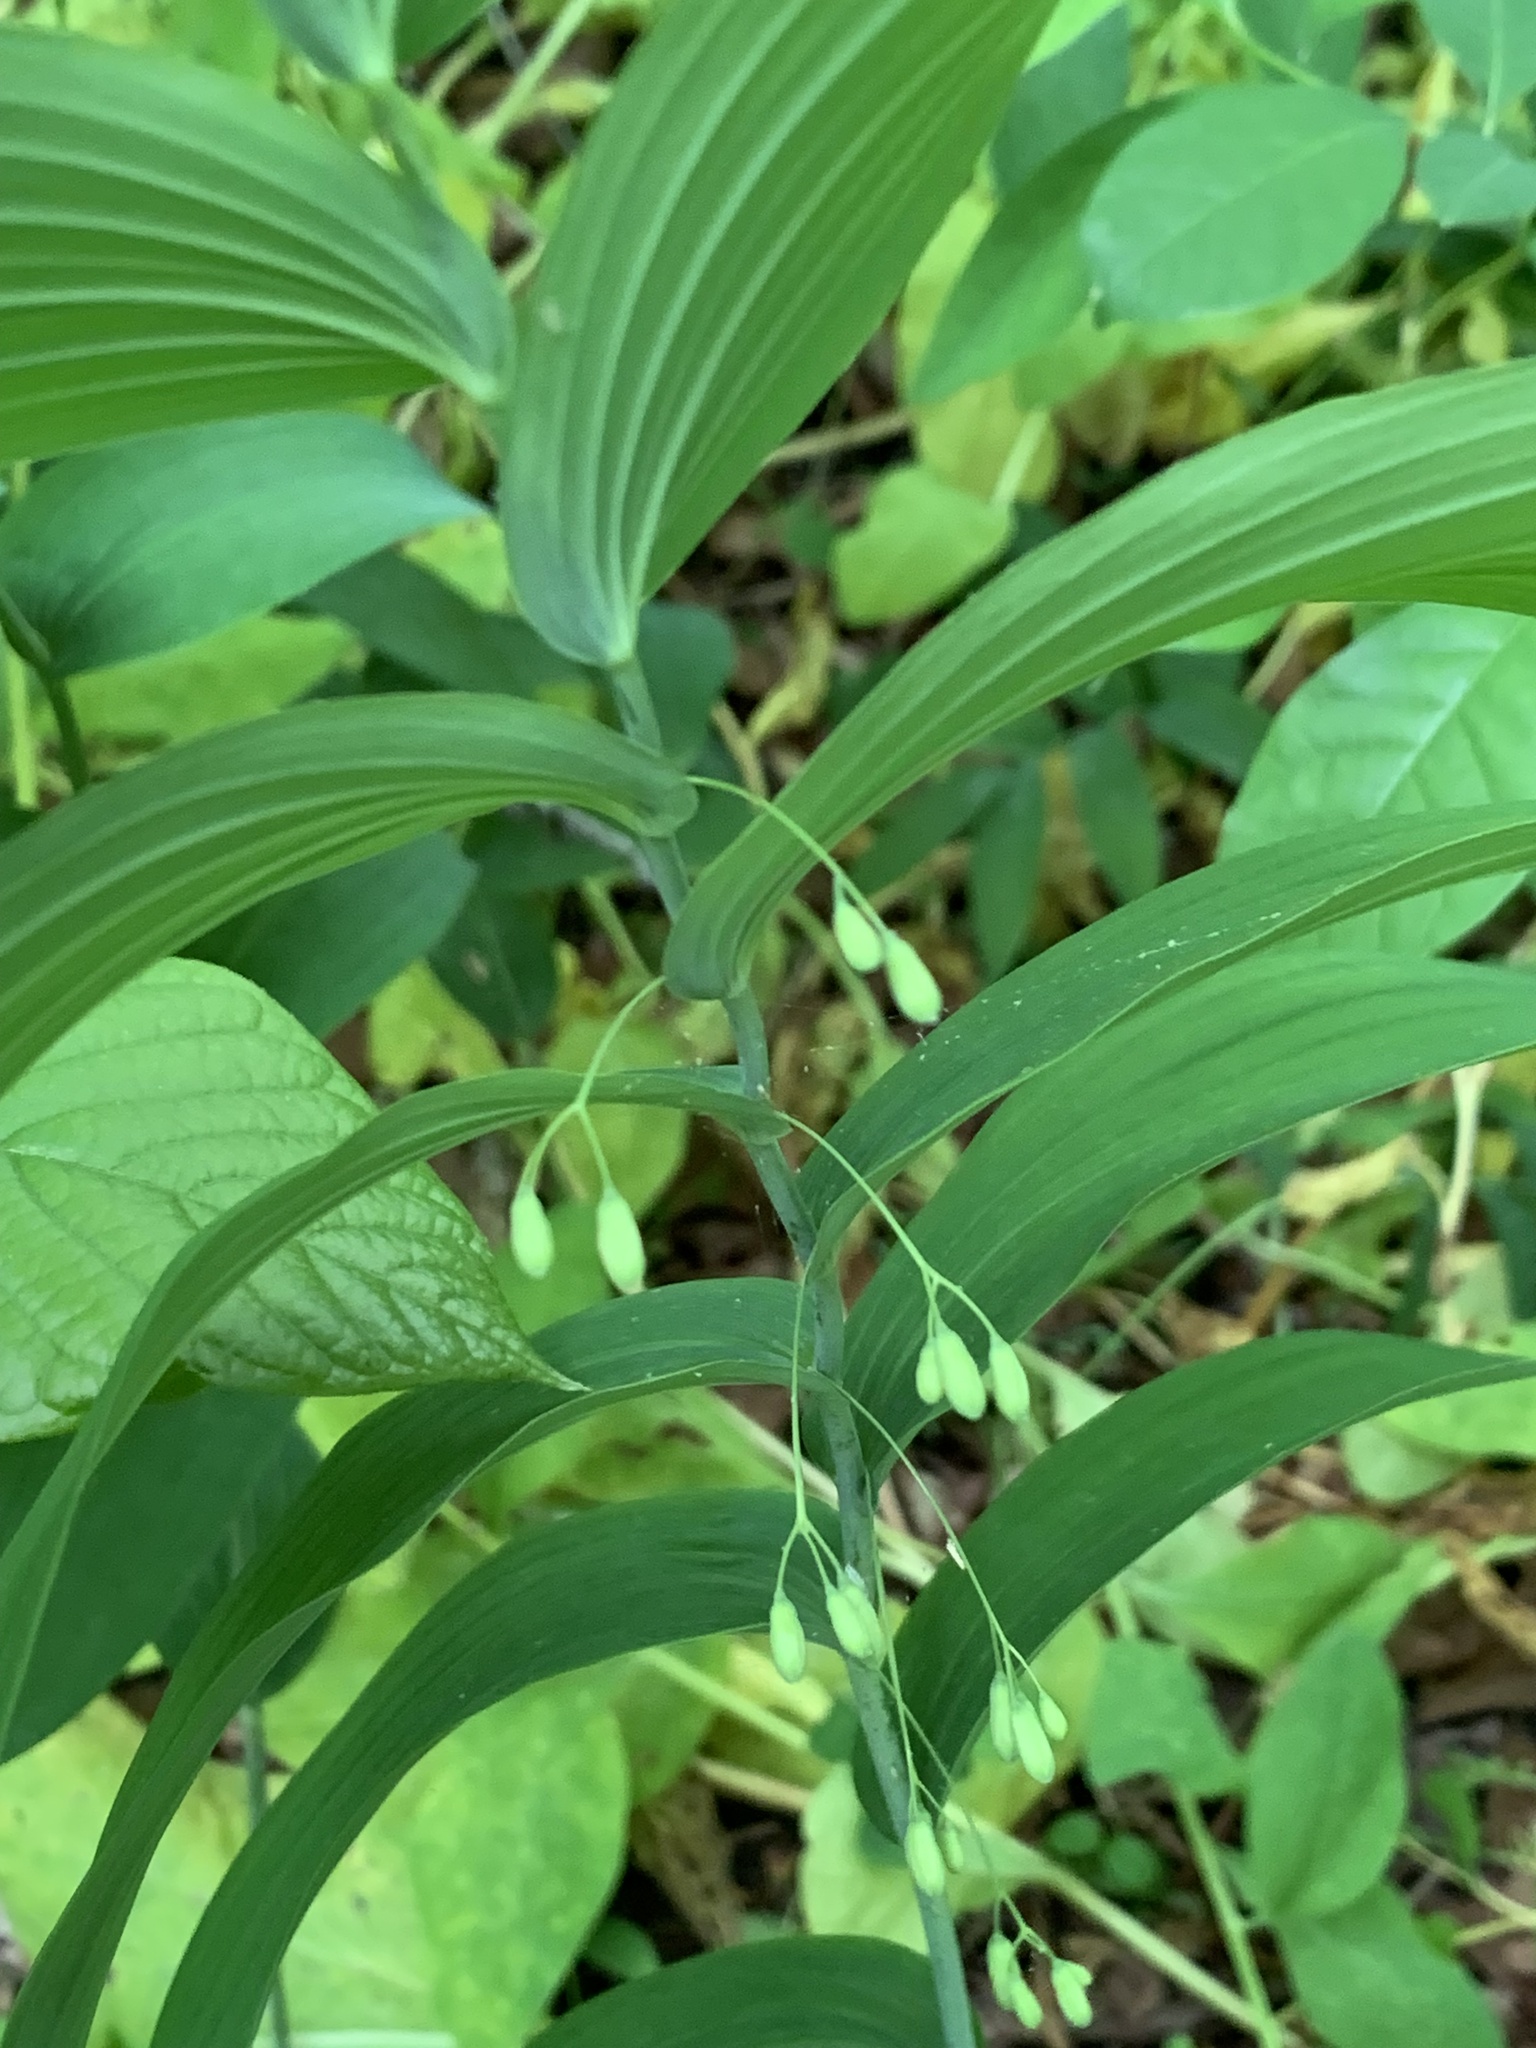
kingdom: Plantae
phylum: Tracheophyta
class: Liliopsida
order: Asparagales
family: Asparagaceae
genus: Polygonatum
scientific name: Polygonatum biflorum
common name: American solomon's-seal
